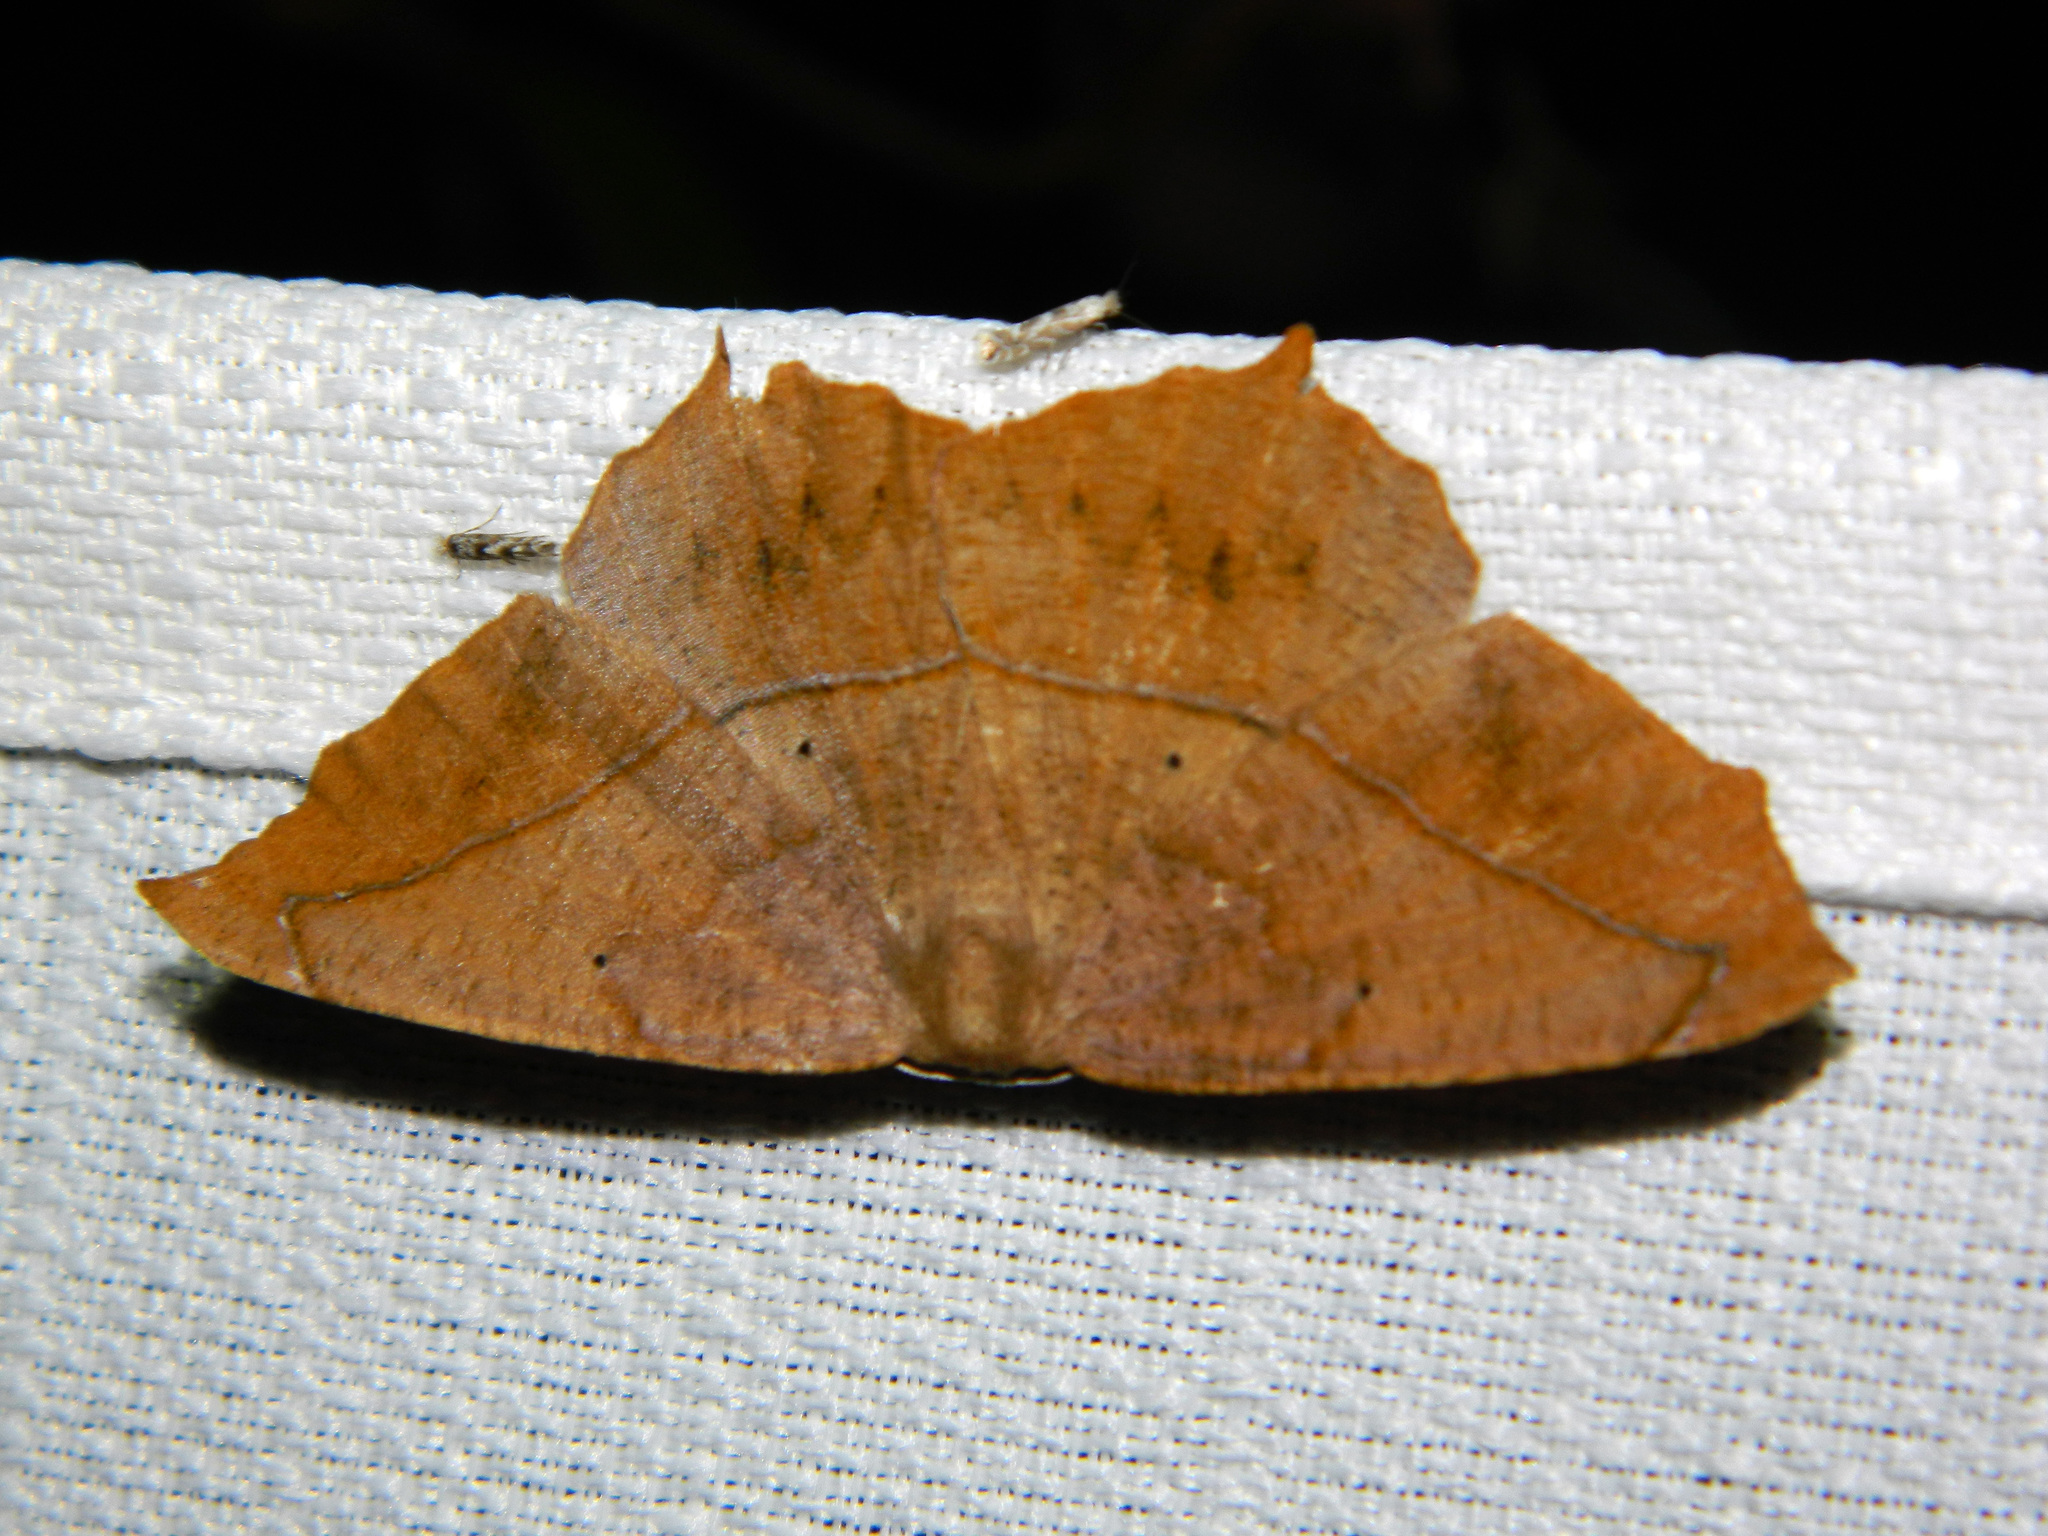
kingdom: Animalia
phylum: Arthropoda
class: Insecta
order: Lepidoptera
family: Geometridae
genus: Prochoerodes
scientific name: Prochoerodes lineola
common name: Large maple spanworm
